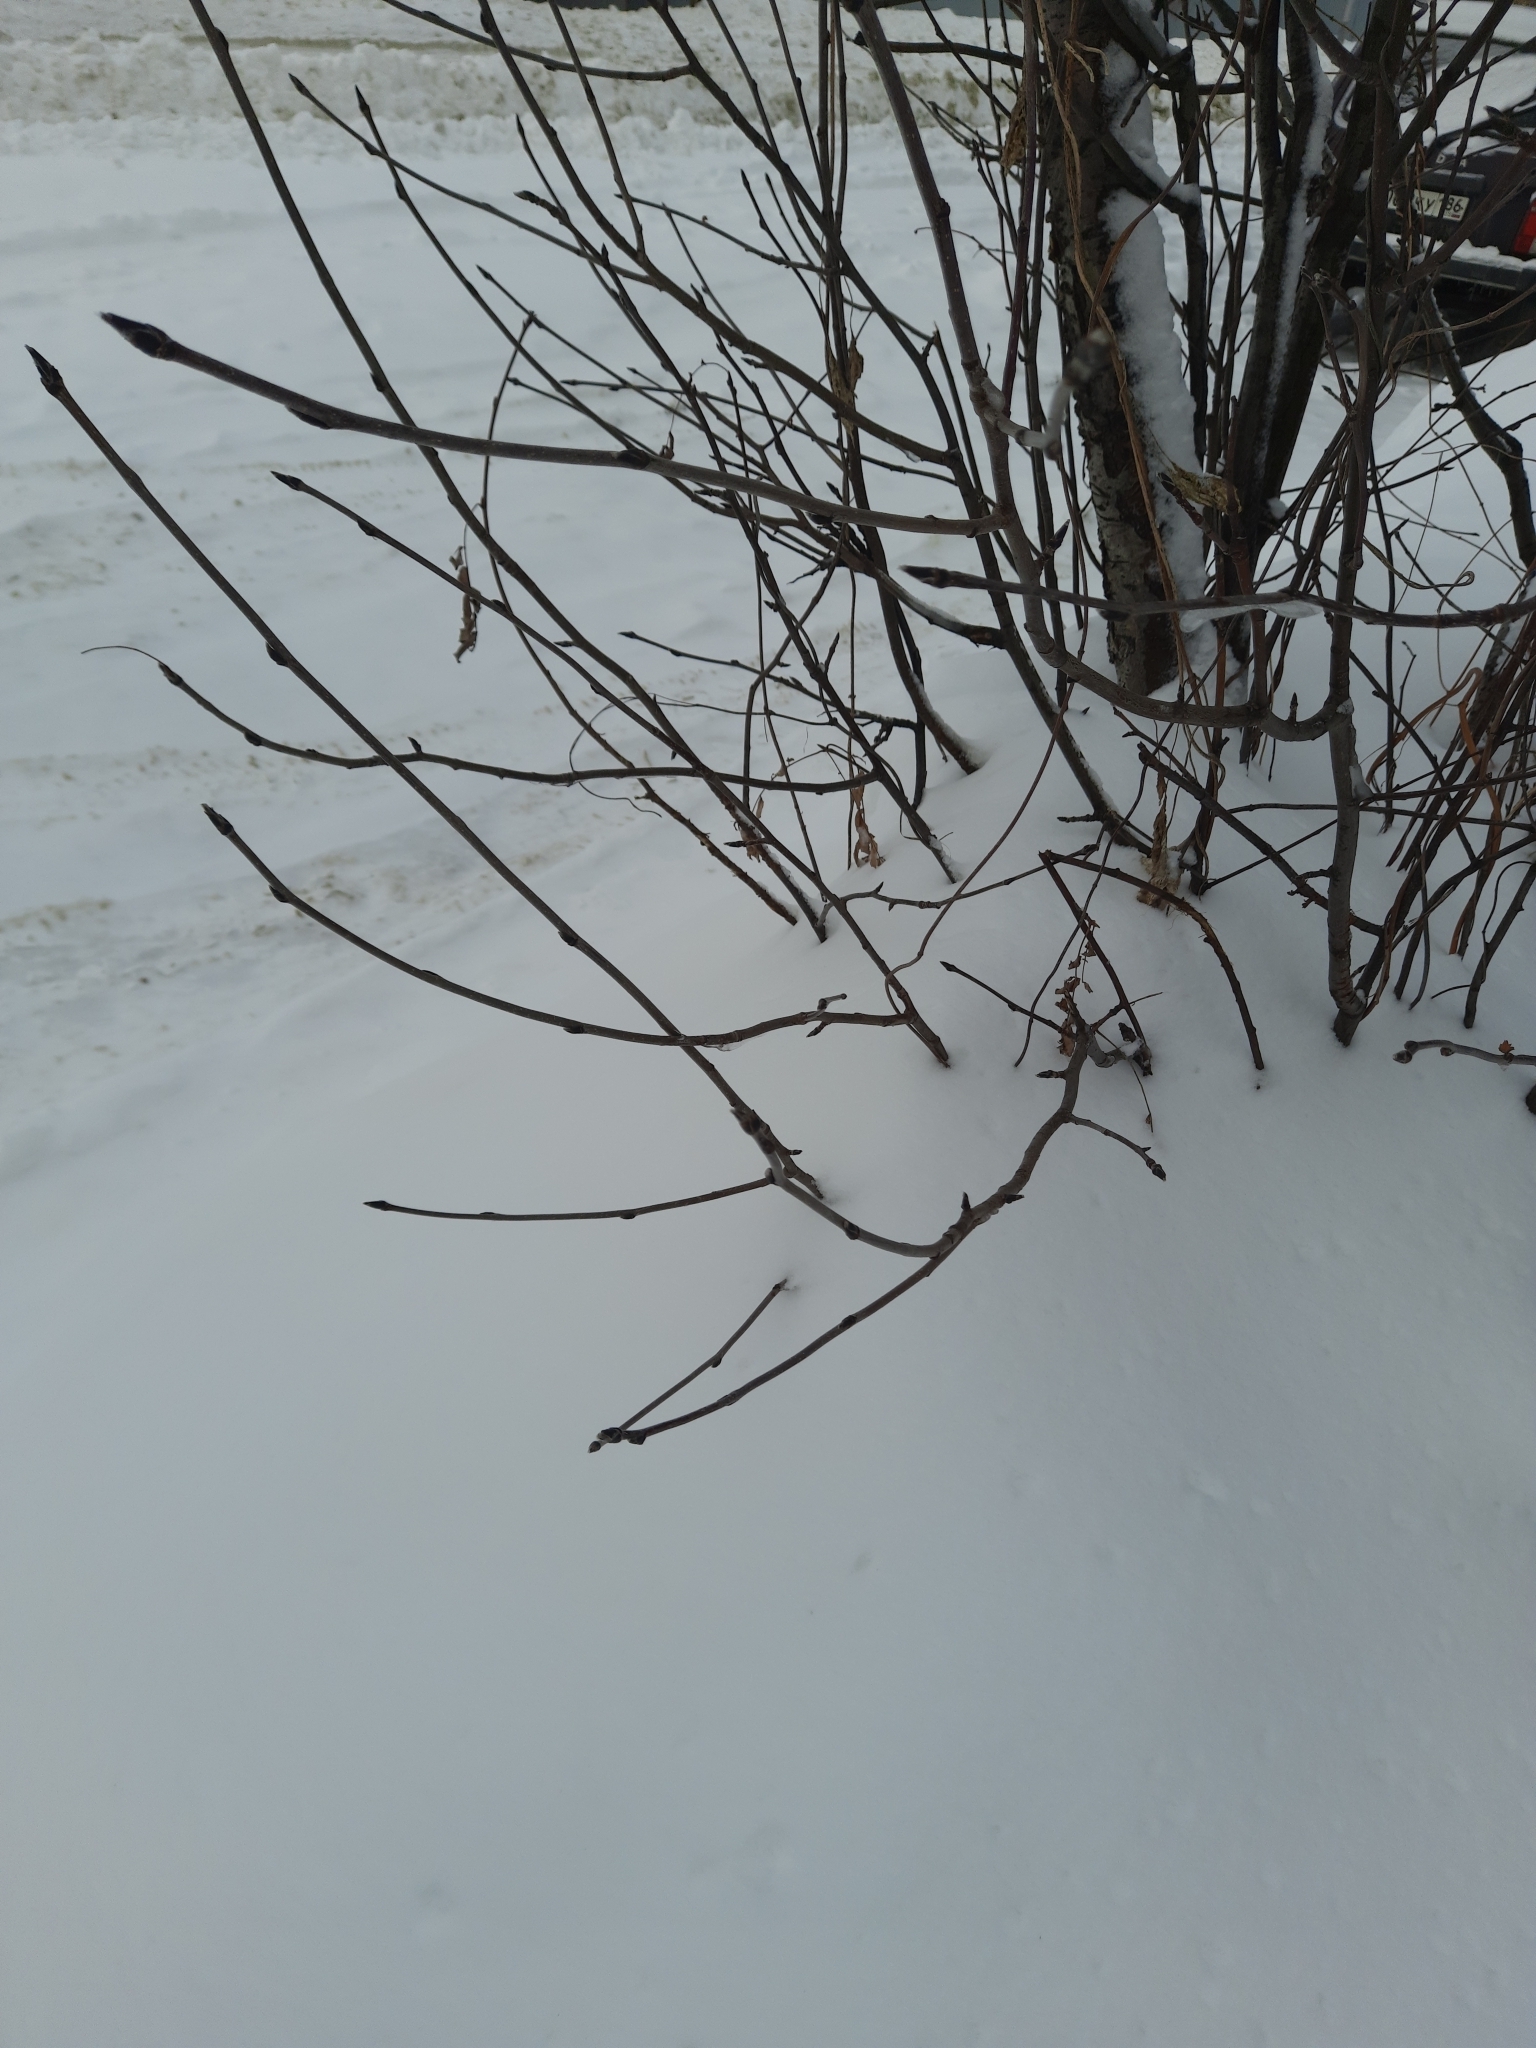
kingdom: Plantae
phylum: Tracheophyta
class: Magnoliopsida
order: Rosales
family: Rosaceae
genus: Sorbus
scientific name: Sorbus aucuparia
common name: Rowan
